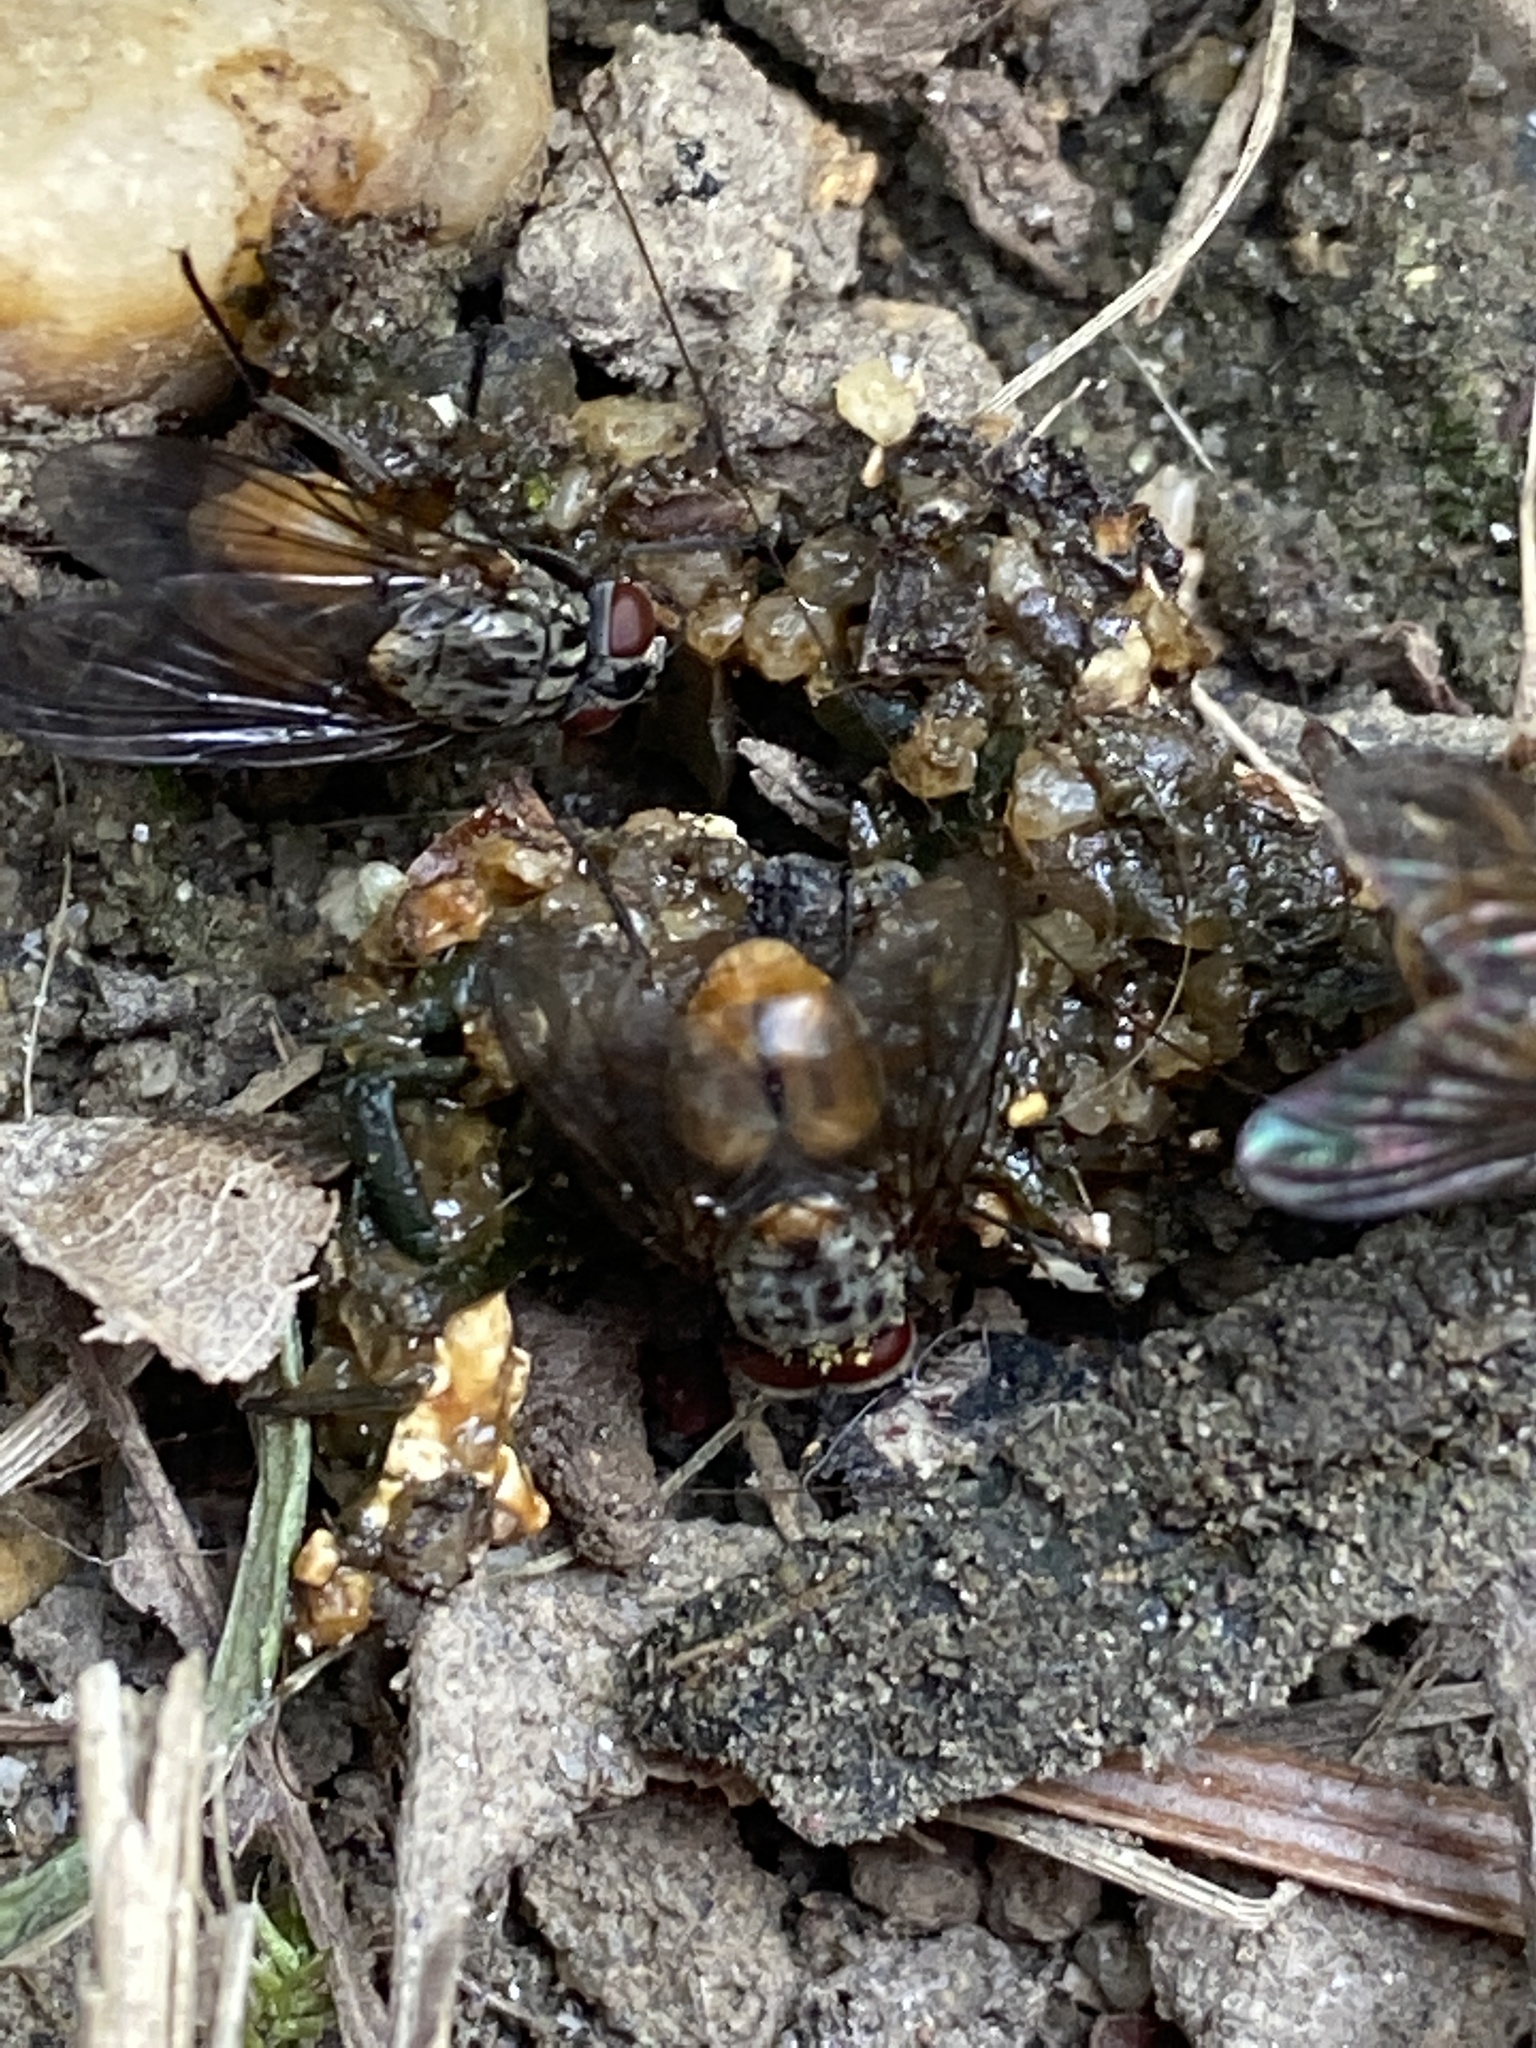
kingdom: Animalia
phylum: Arthropoda
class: Insecta
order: Diptera
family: Muscidae
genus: Phaonia
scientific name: Phaonia subventa
